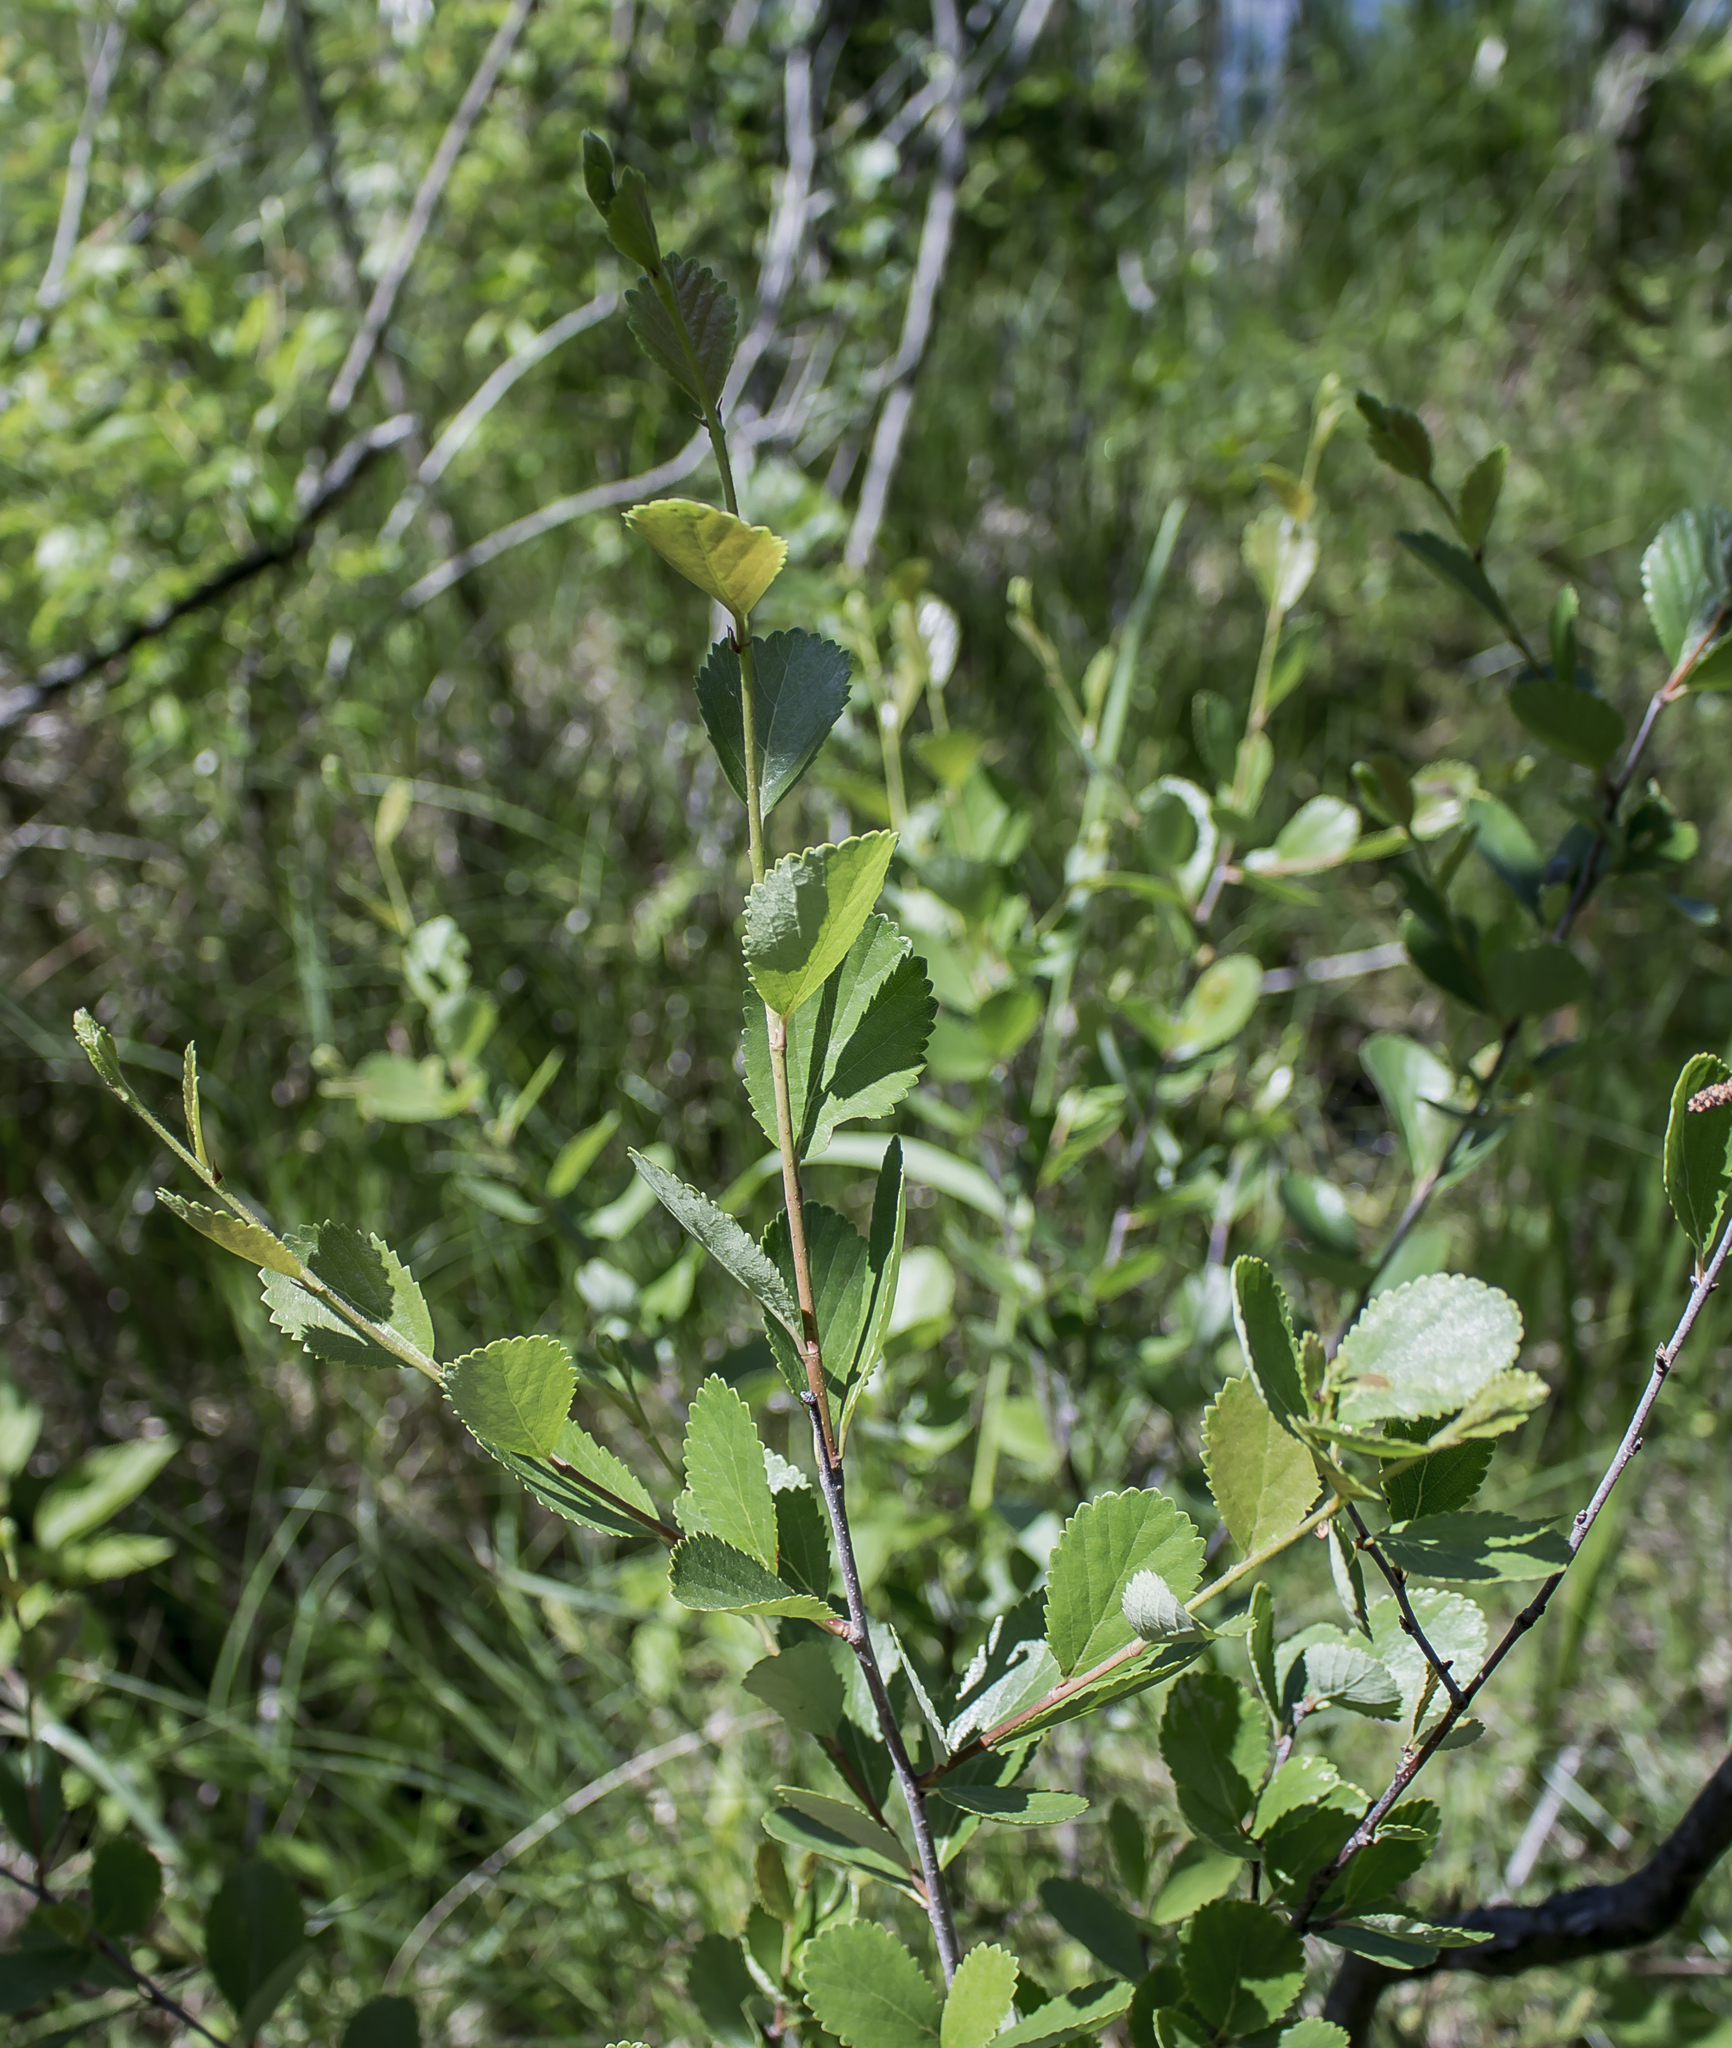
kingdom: Plantae
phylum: Tracheophyta
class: Magnoliopsida
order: Fagales
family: Betulaceae
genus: Betula
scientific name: Betula pumila
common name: Bog birch
